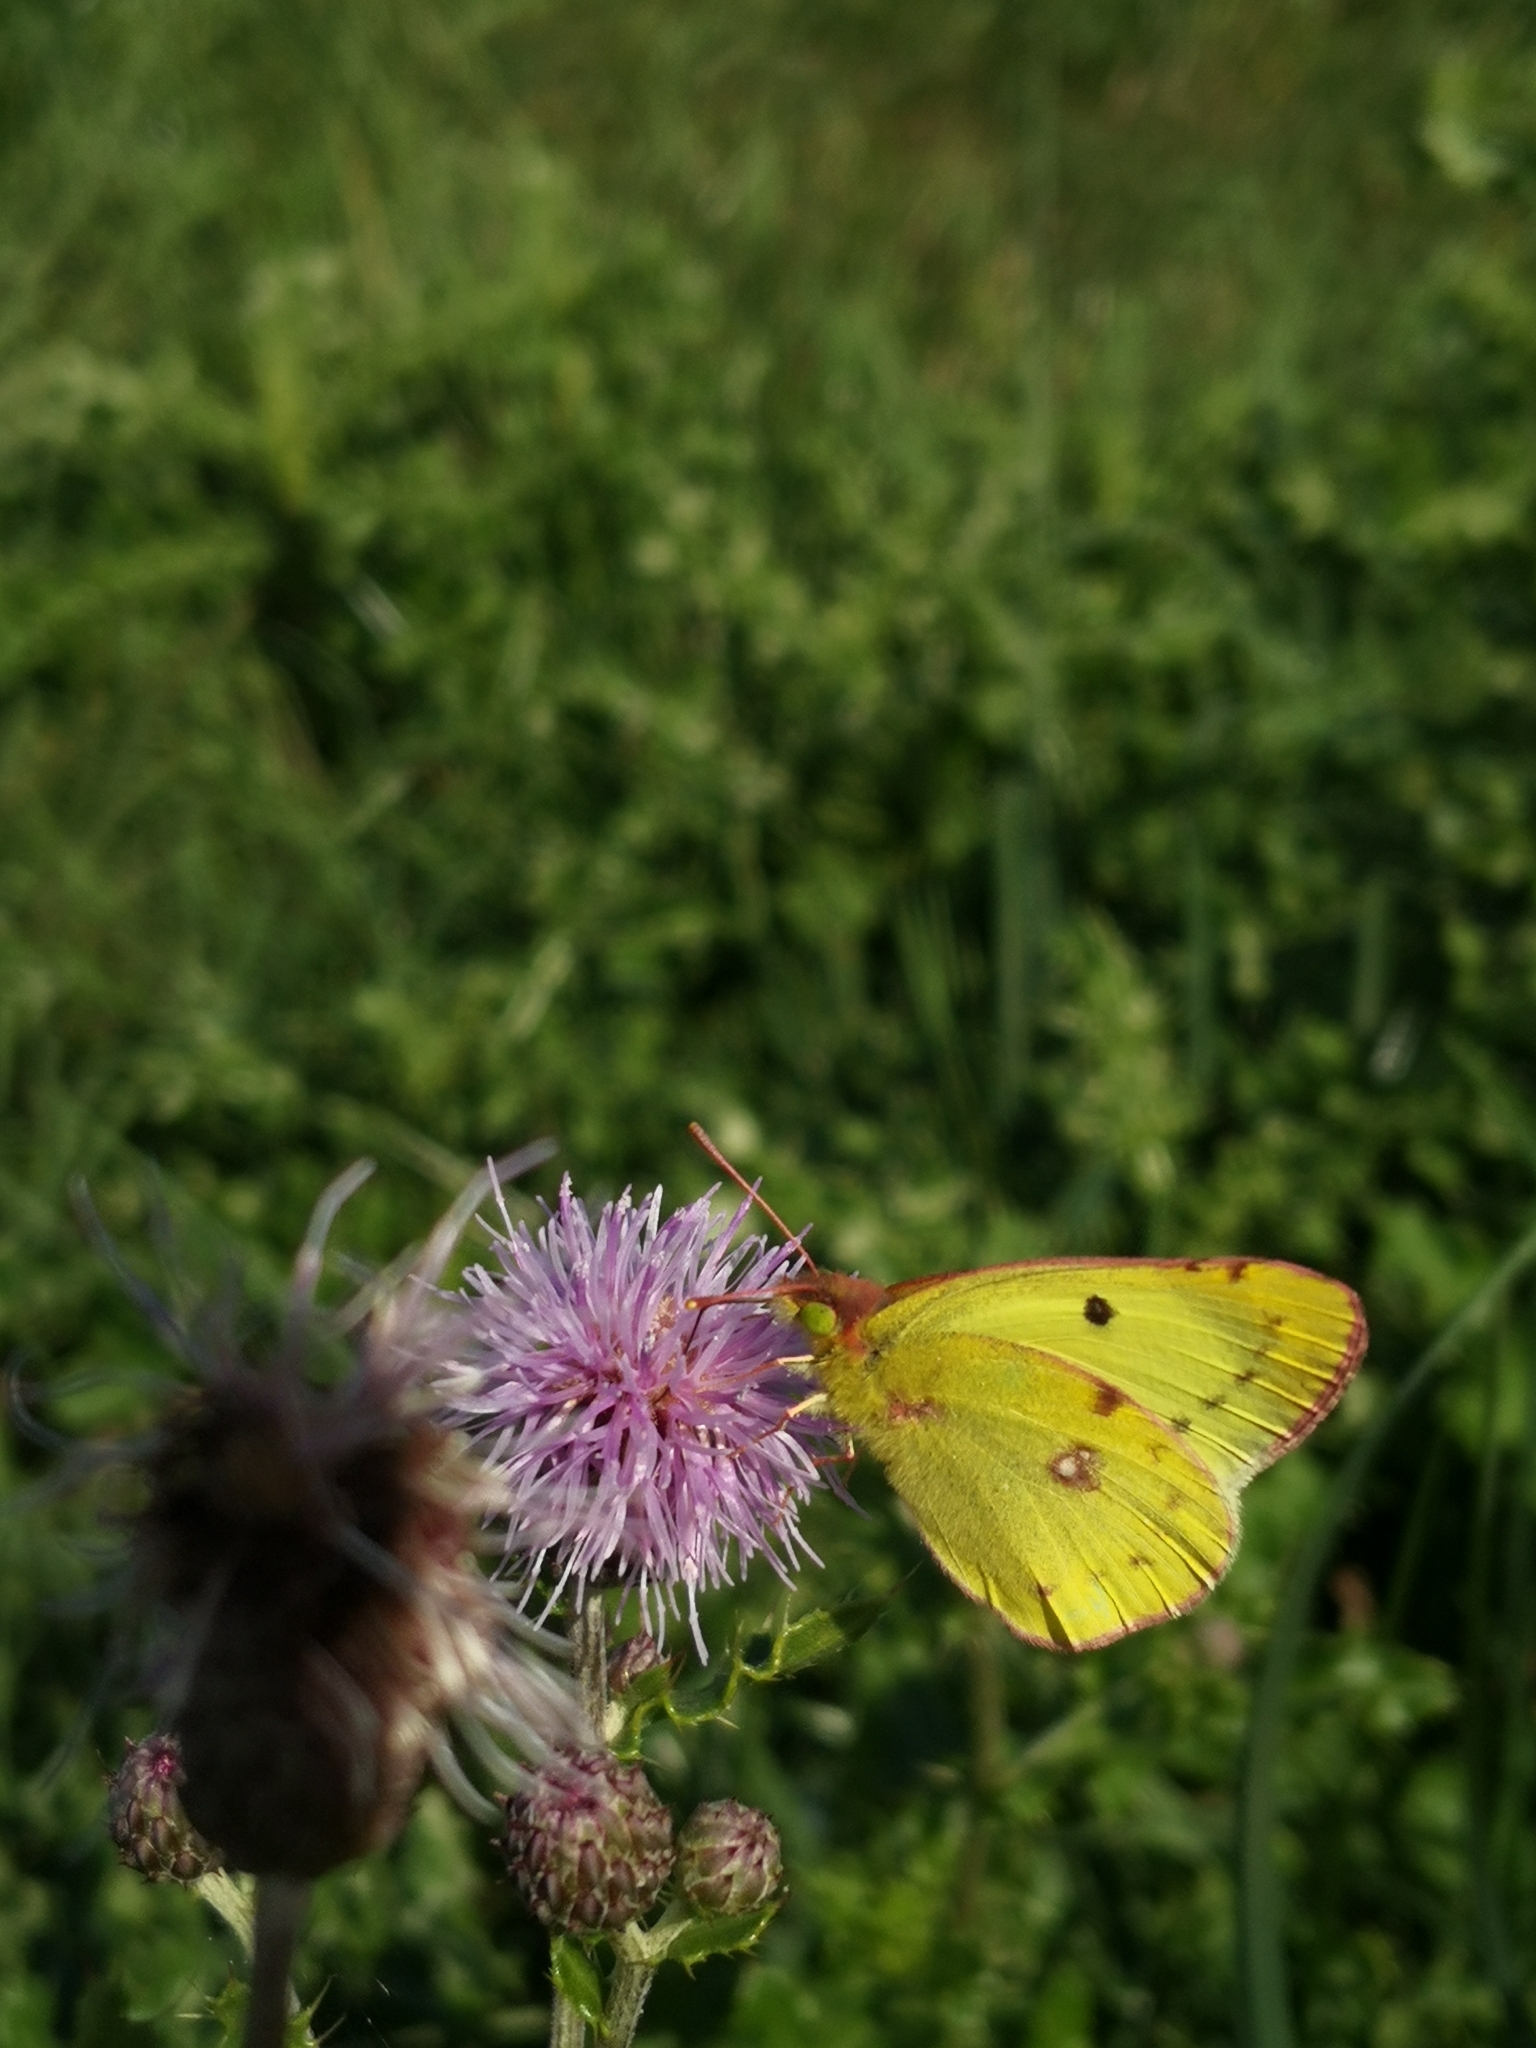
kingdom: Animalia
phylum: Arthropoda
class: Insecta
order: Lepidoptera
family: Pieridae
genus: Colias
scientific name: Colias croceus
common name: Clouded yellow
